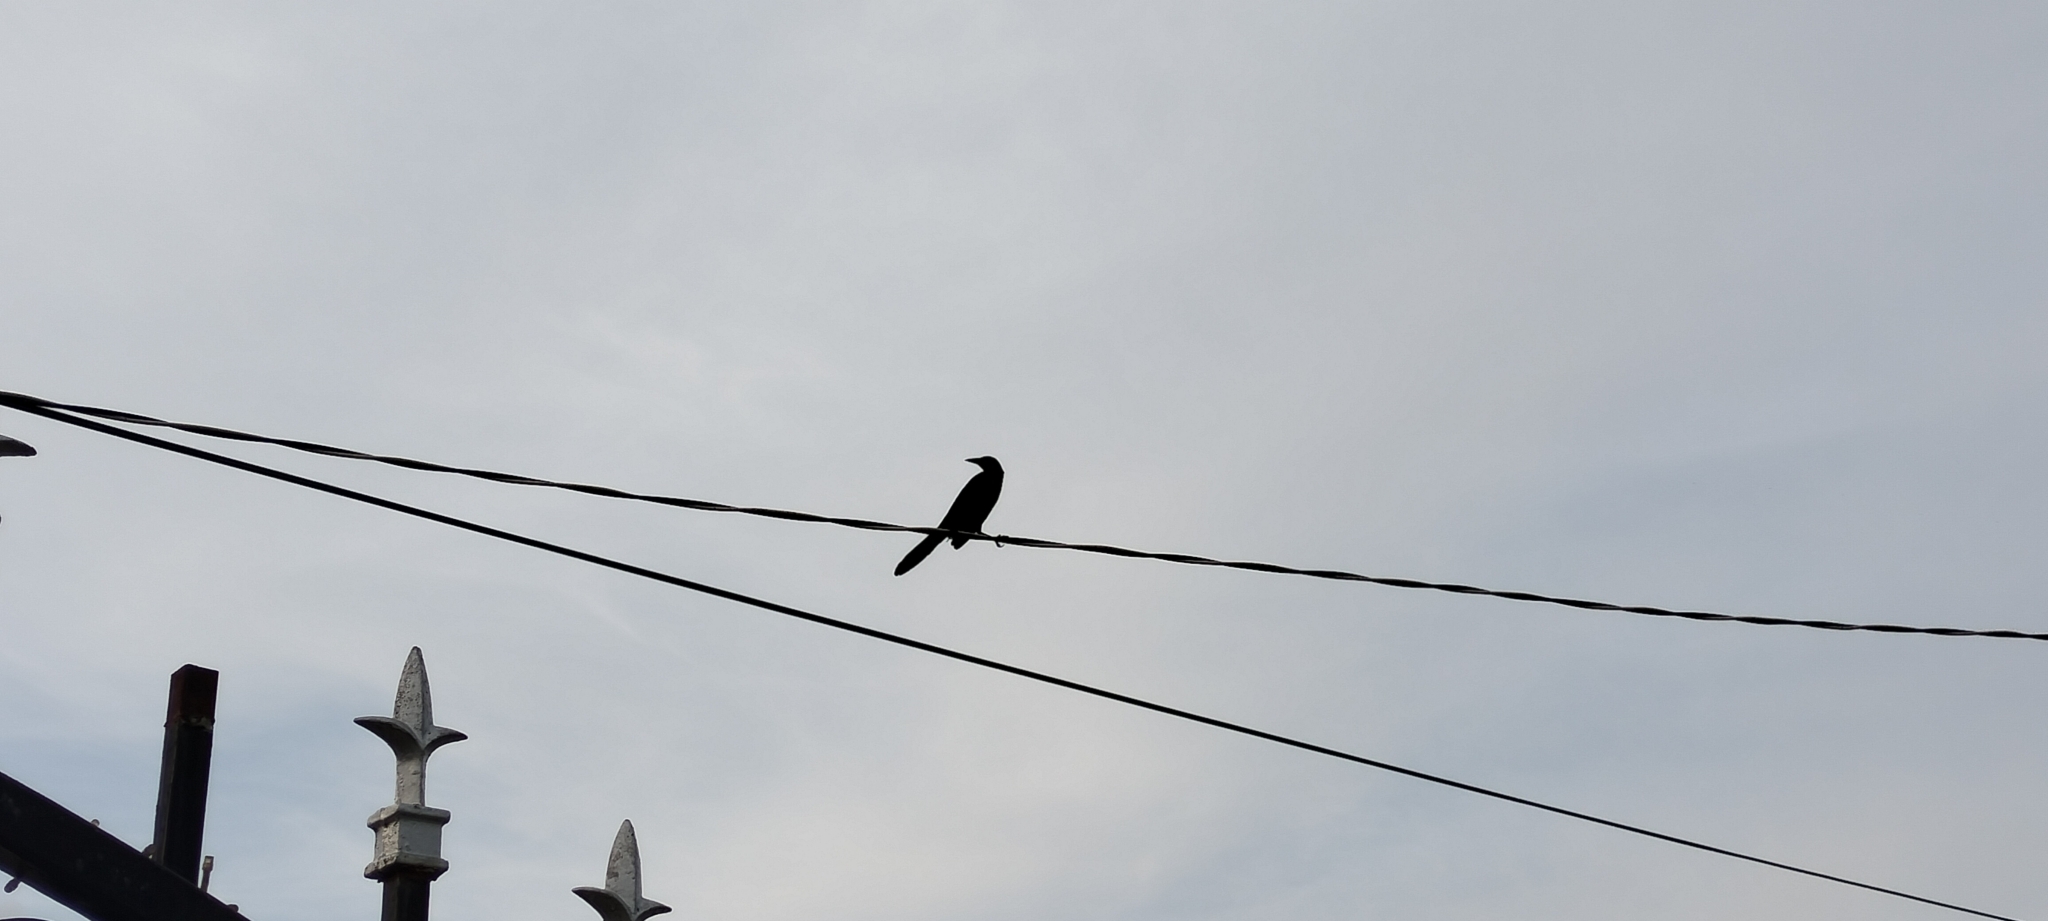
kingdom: Animalia
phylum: Chordata
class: Aves
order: Passeriformes
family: Icteridae
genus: Quiscalus
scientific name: Quiscalus mexicanus
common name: Great-tailed grackle
